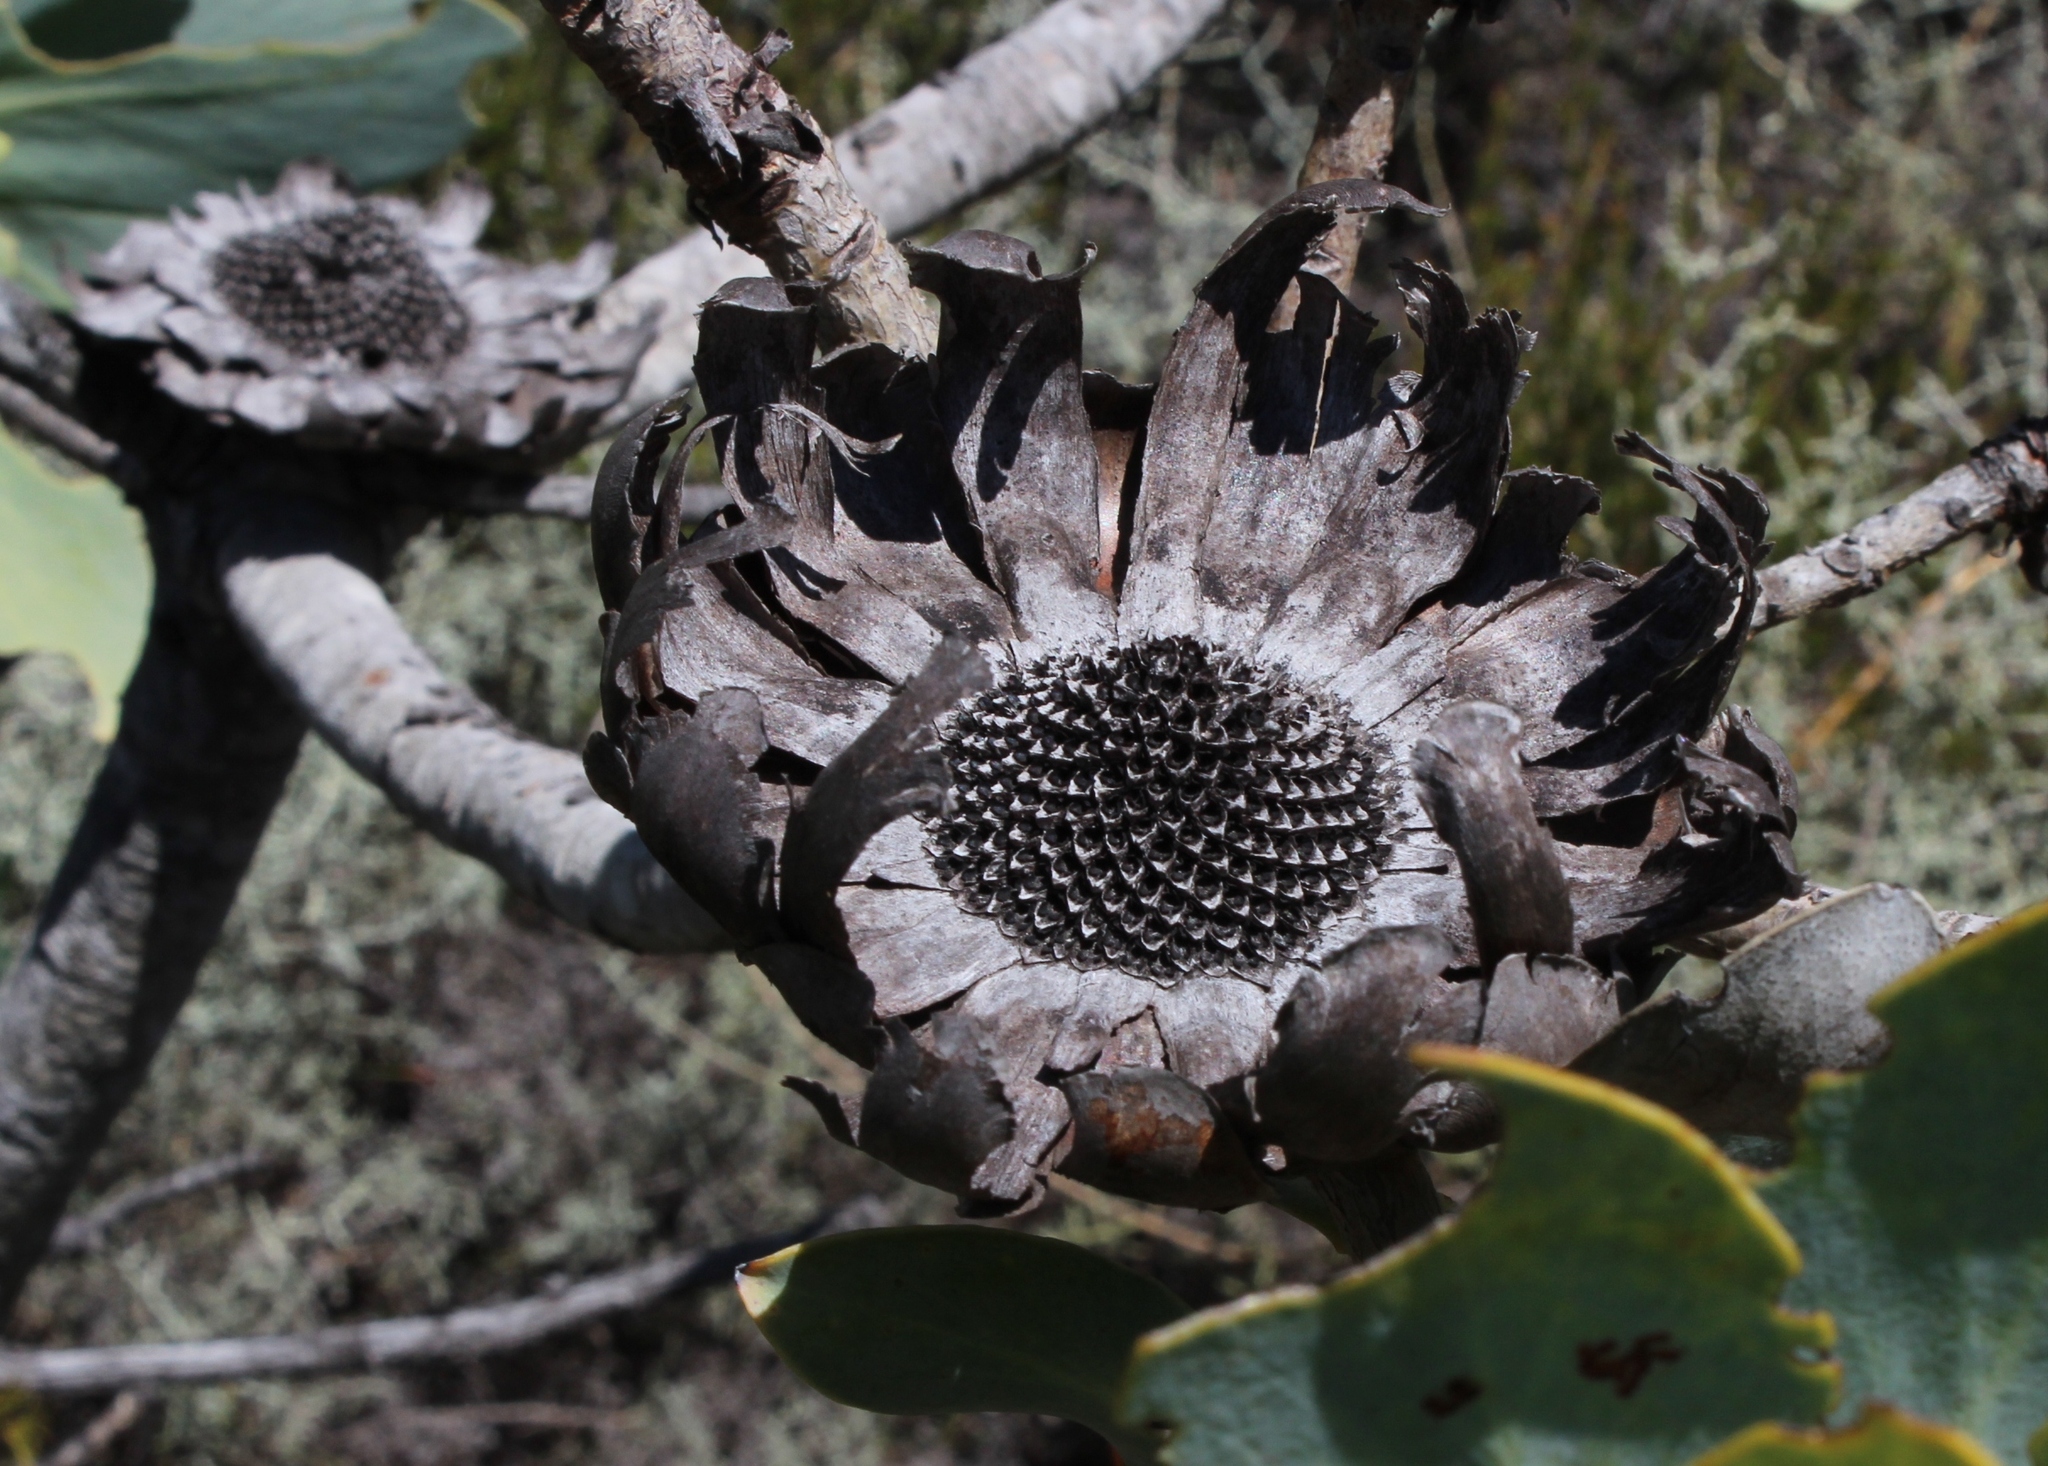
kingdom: Plantae
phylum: Tracheophyta
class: Magnoliopsida
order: Proteales
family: Proteaceae
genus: Protea
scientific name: Protea nitida
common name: Tree protea
